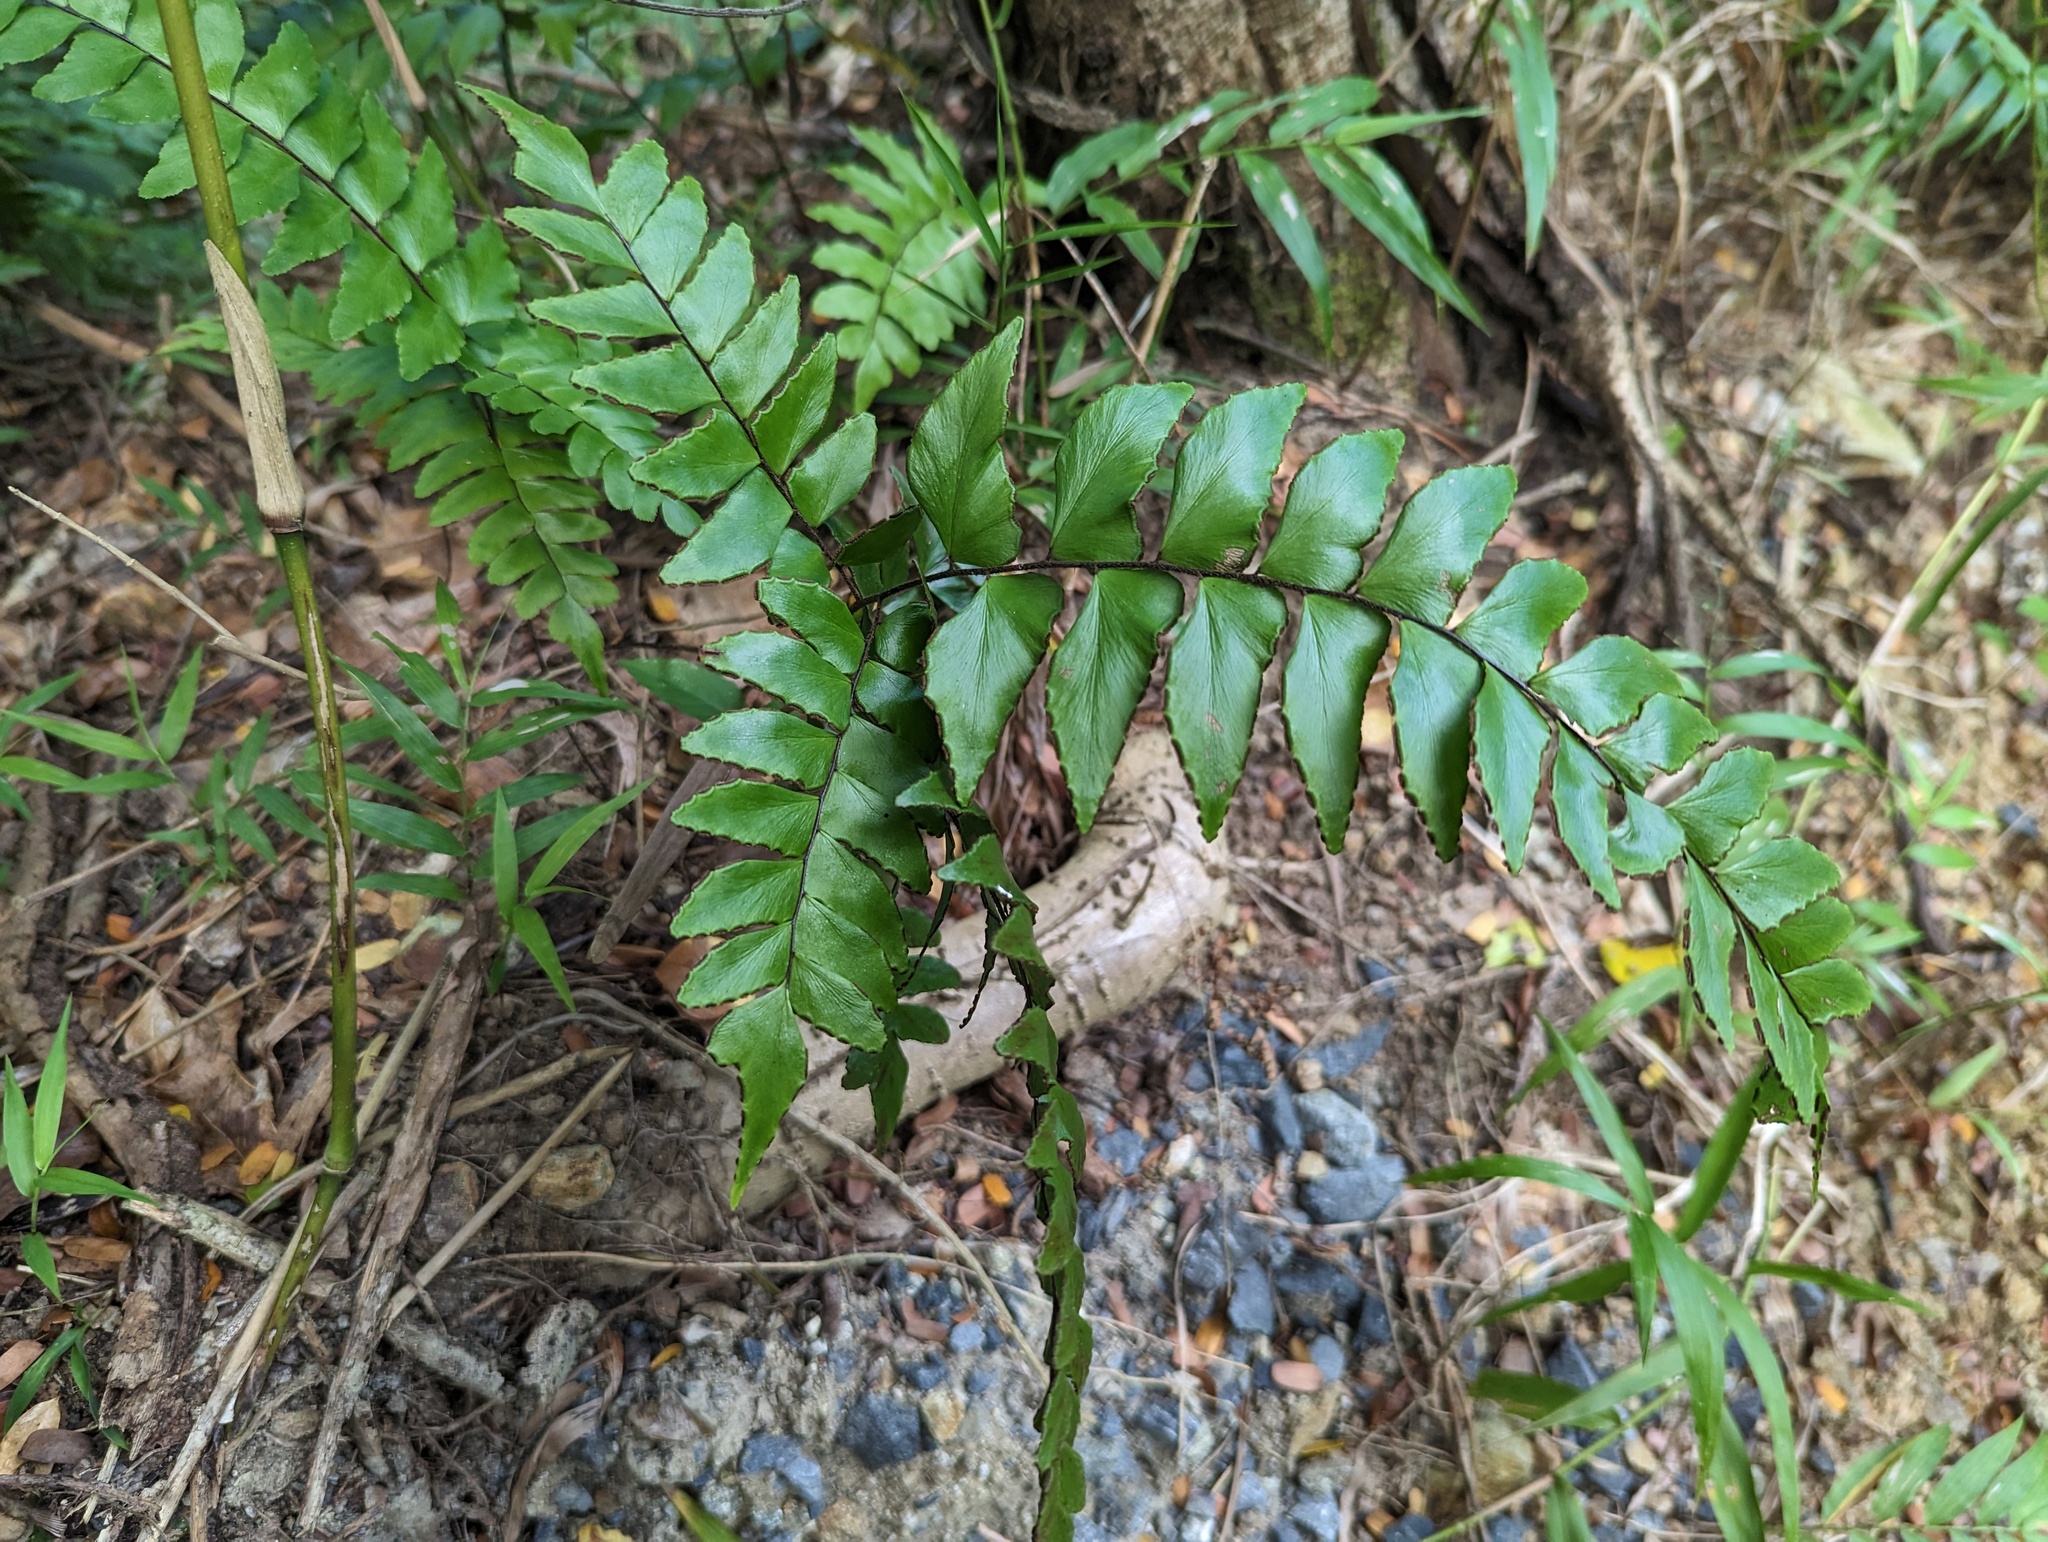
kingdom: Plantae
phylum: Tracheophyta
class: Polypodiopsida
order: Polypodiales
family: Pteridaceae
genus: Adiantum
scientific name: Adiantum latifolium
